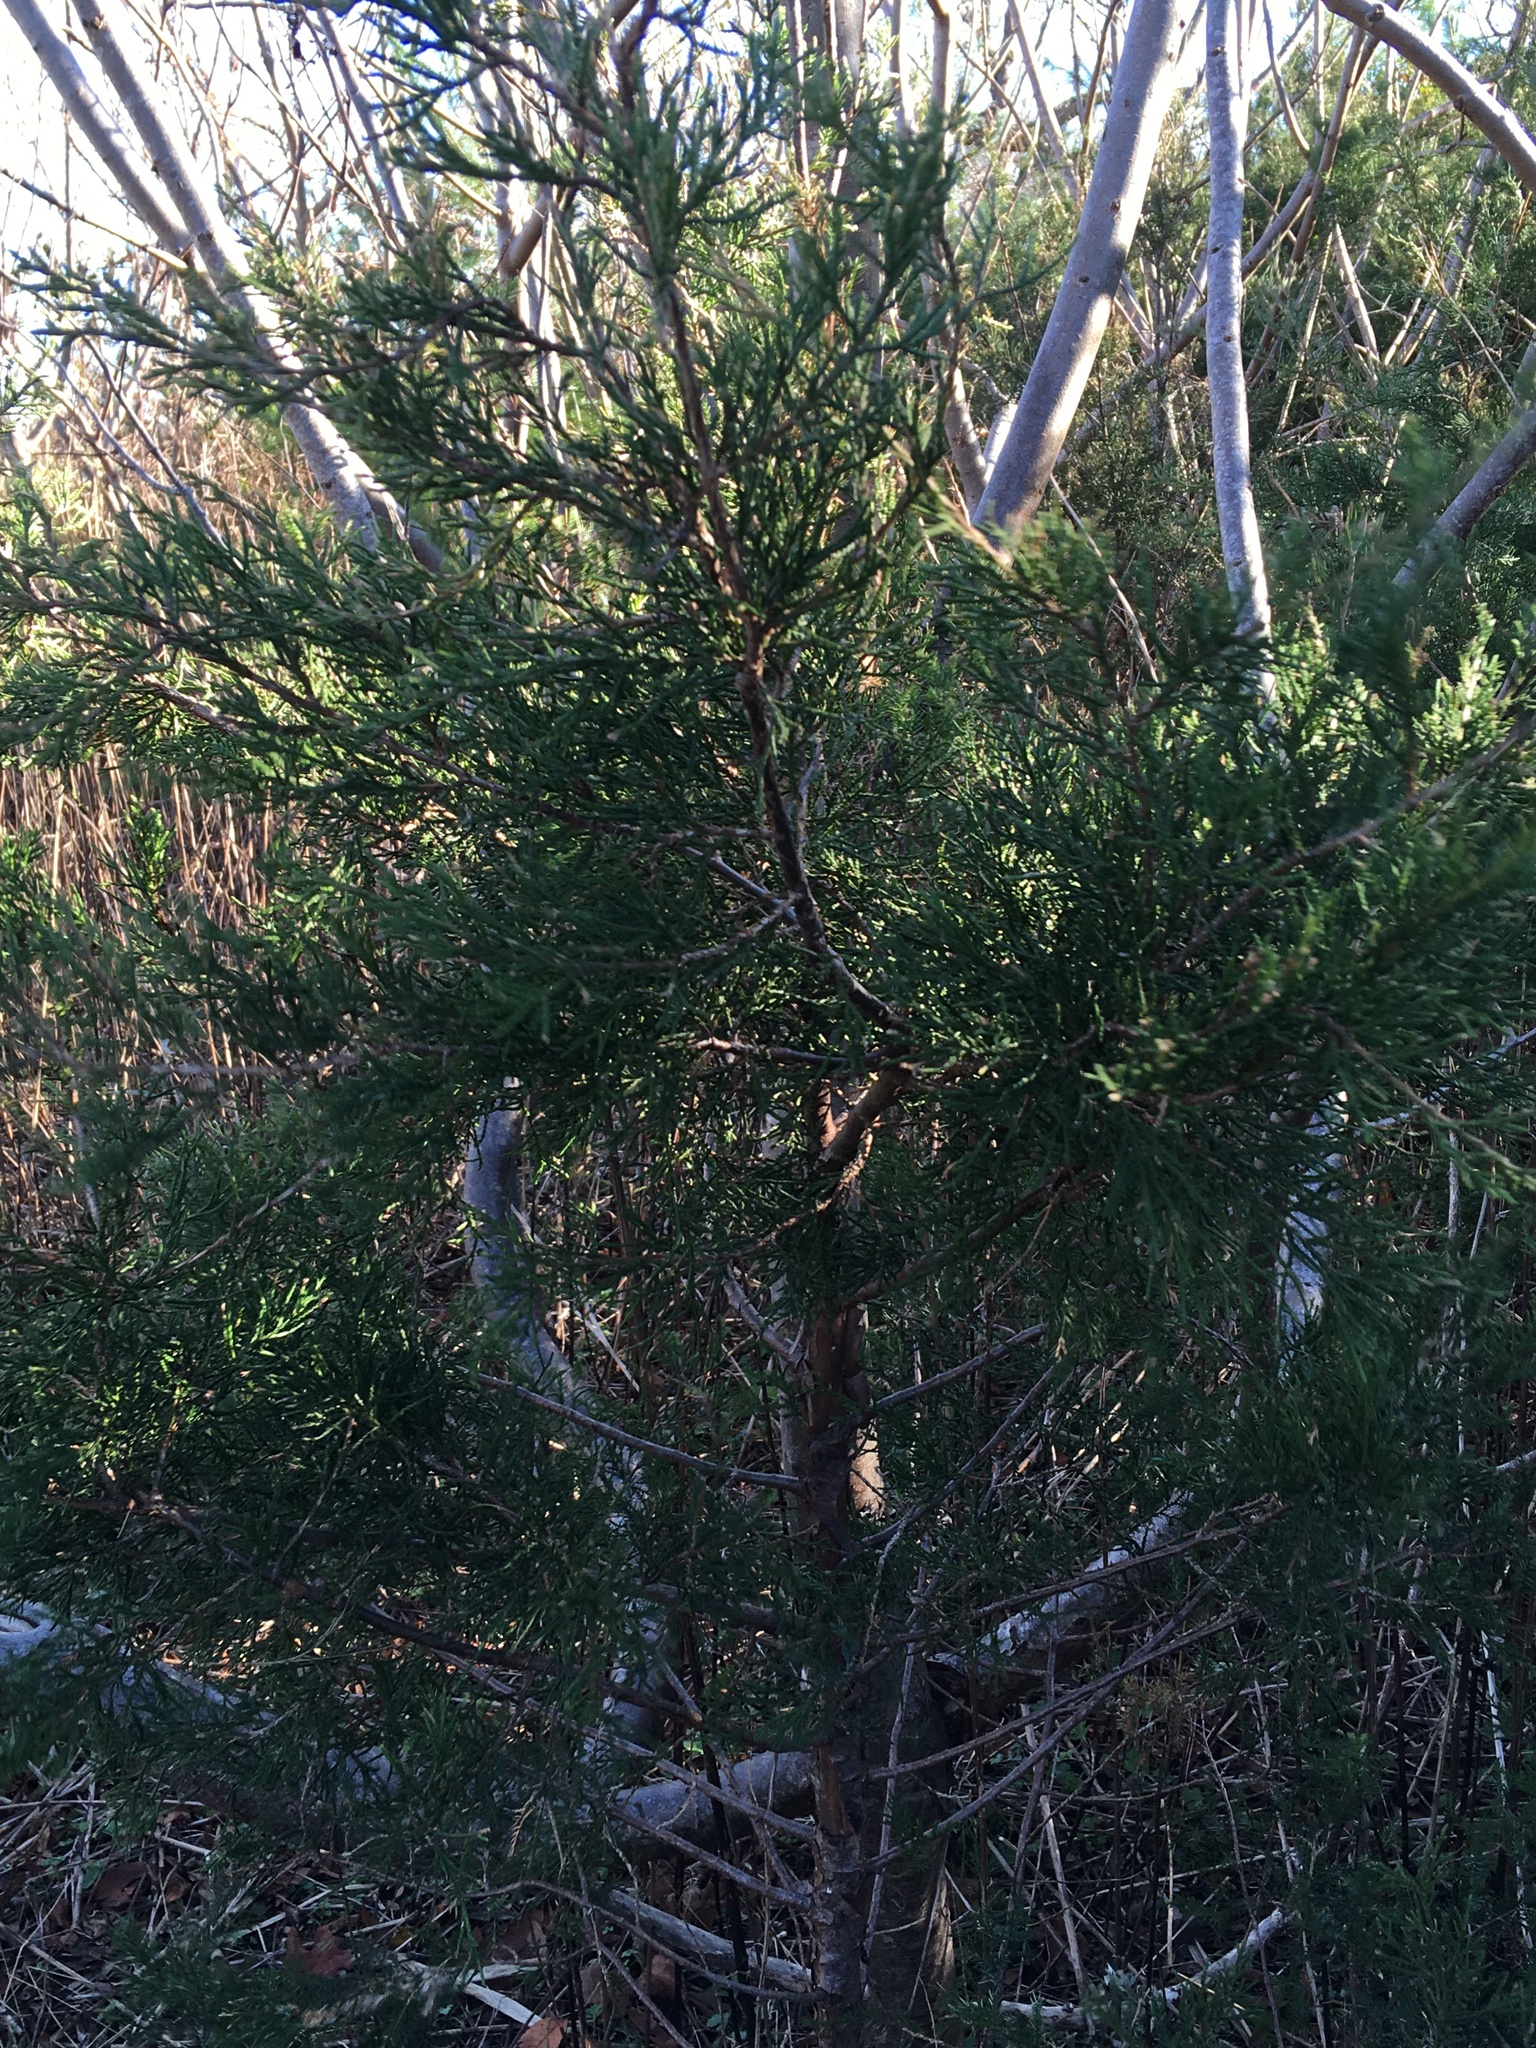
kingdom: Plantae
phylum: Tracheophyta
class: Pinopsida
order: Pinales
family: Cupressaceae
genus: Juniperus
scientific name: Juniperus virginiana
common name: Red juniper
